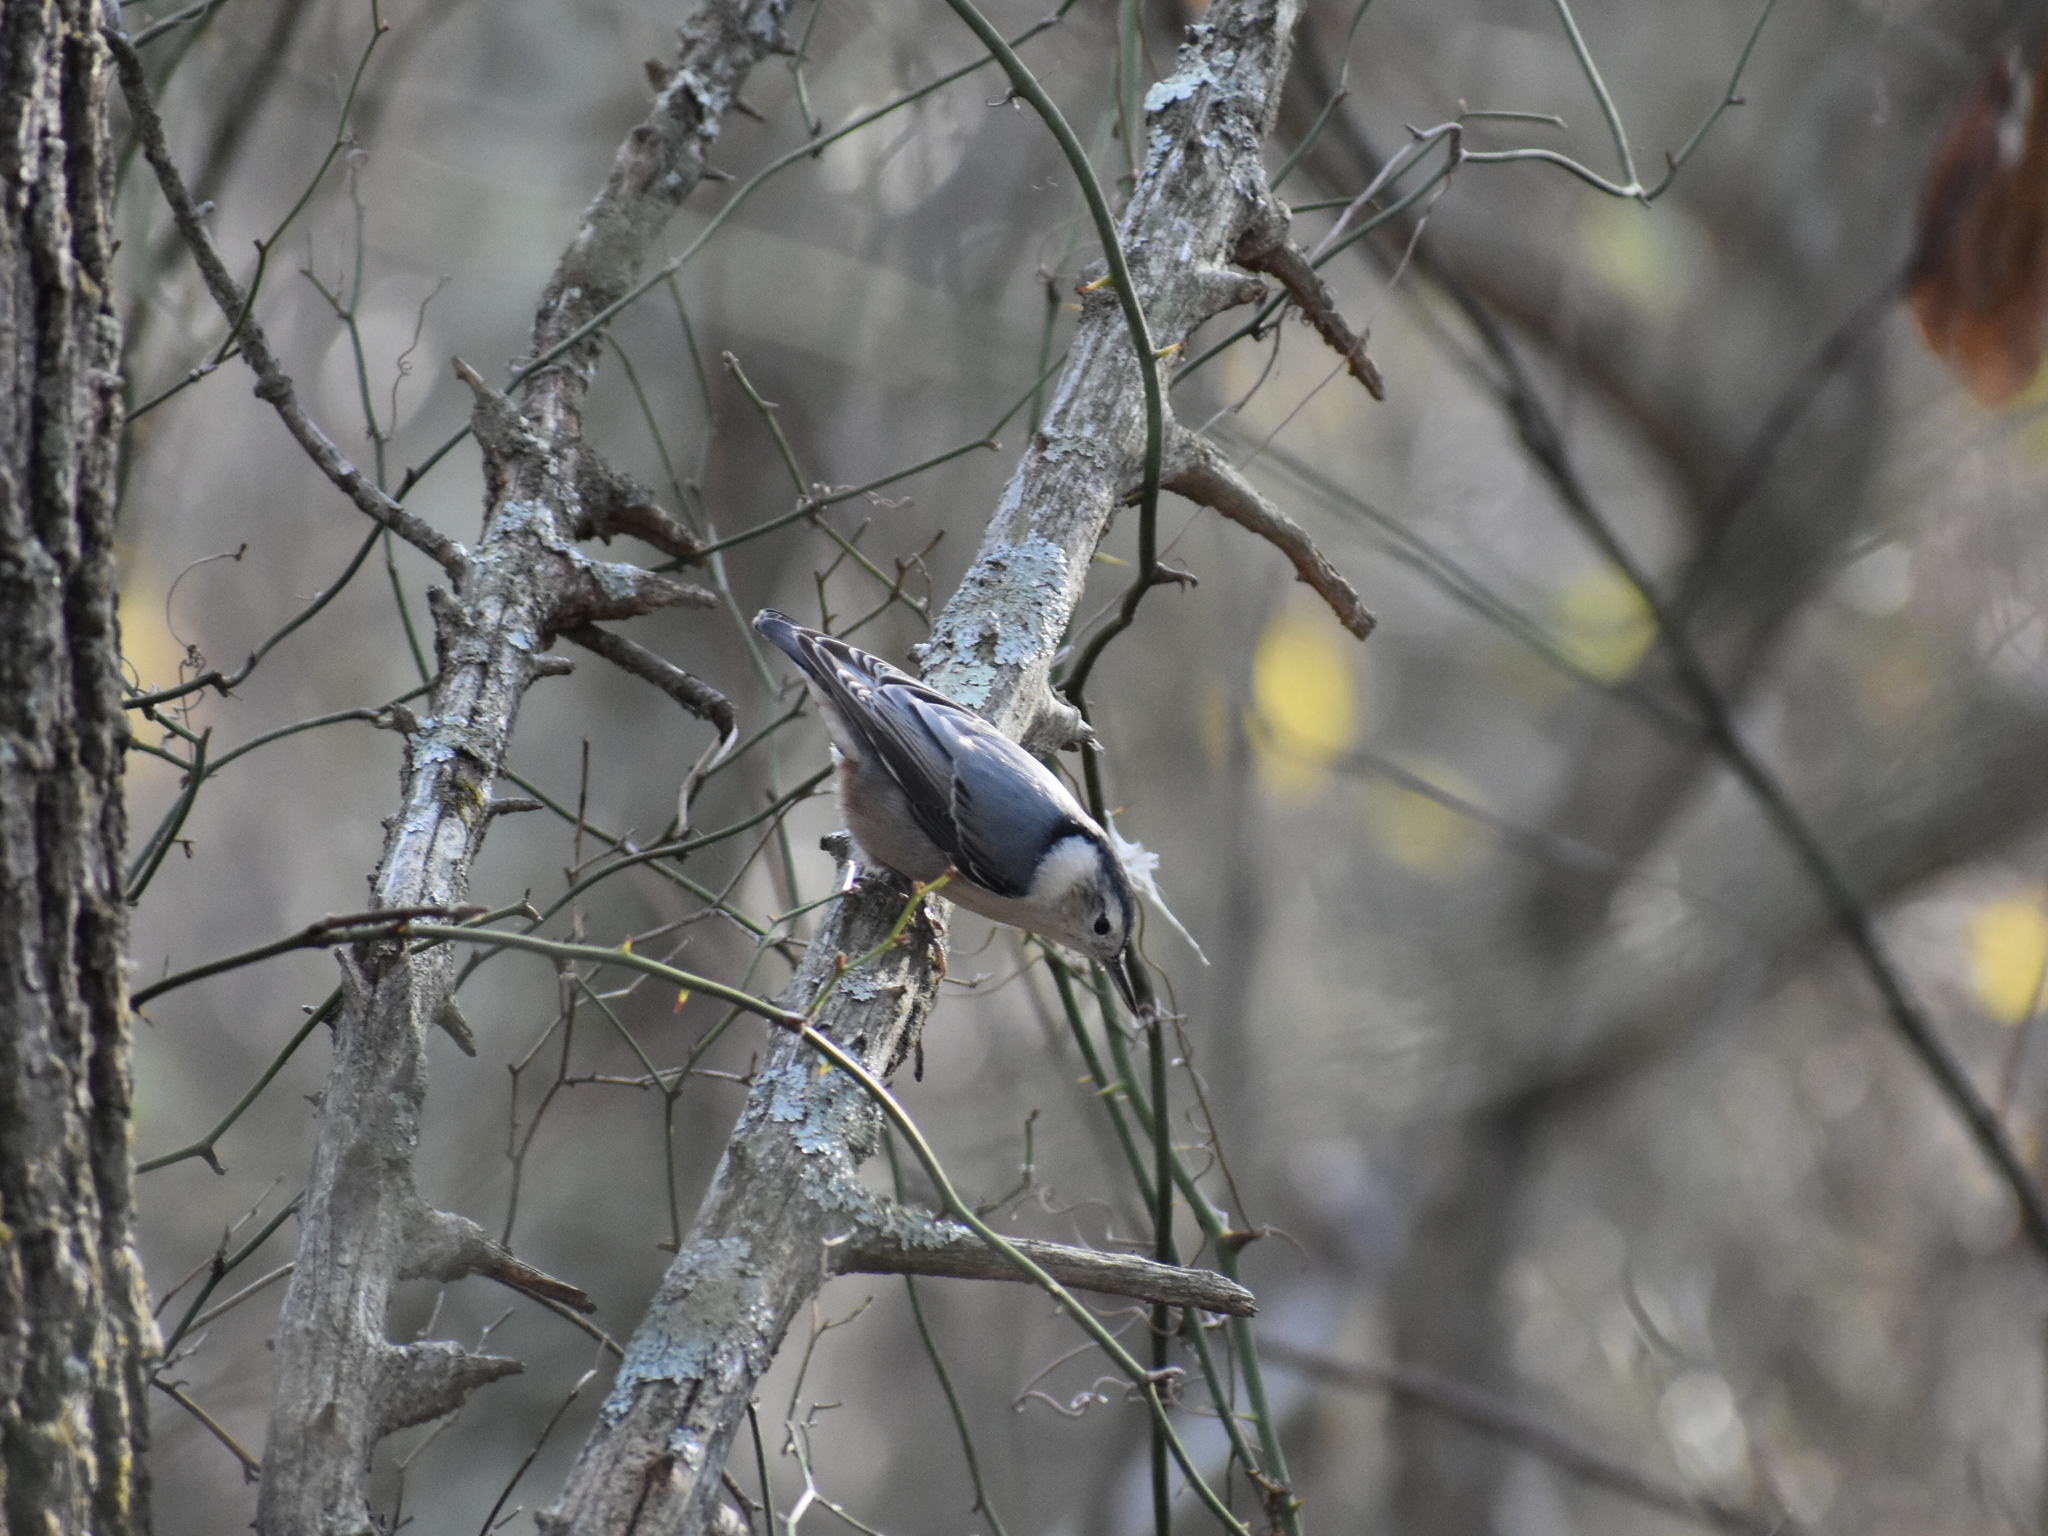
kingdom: Animalia
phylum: Chordata
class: Aves
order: Passeriformes
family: Sittidae
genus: Sitta
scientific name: Sitta carolinensis
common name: White-breasted nuthatch
